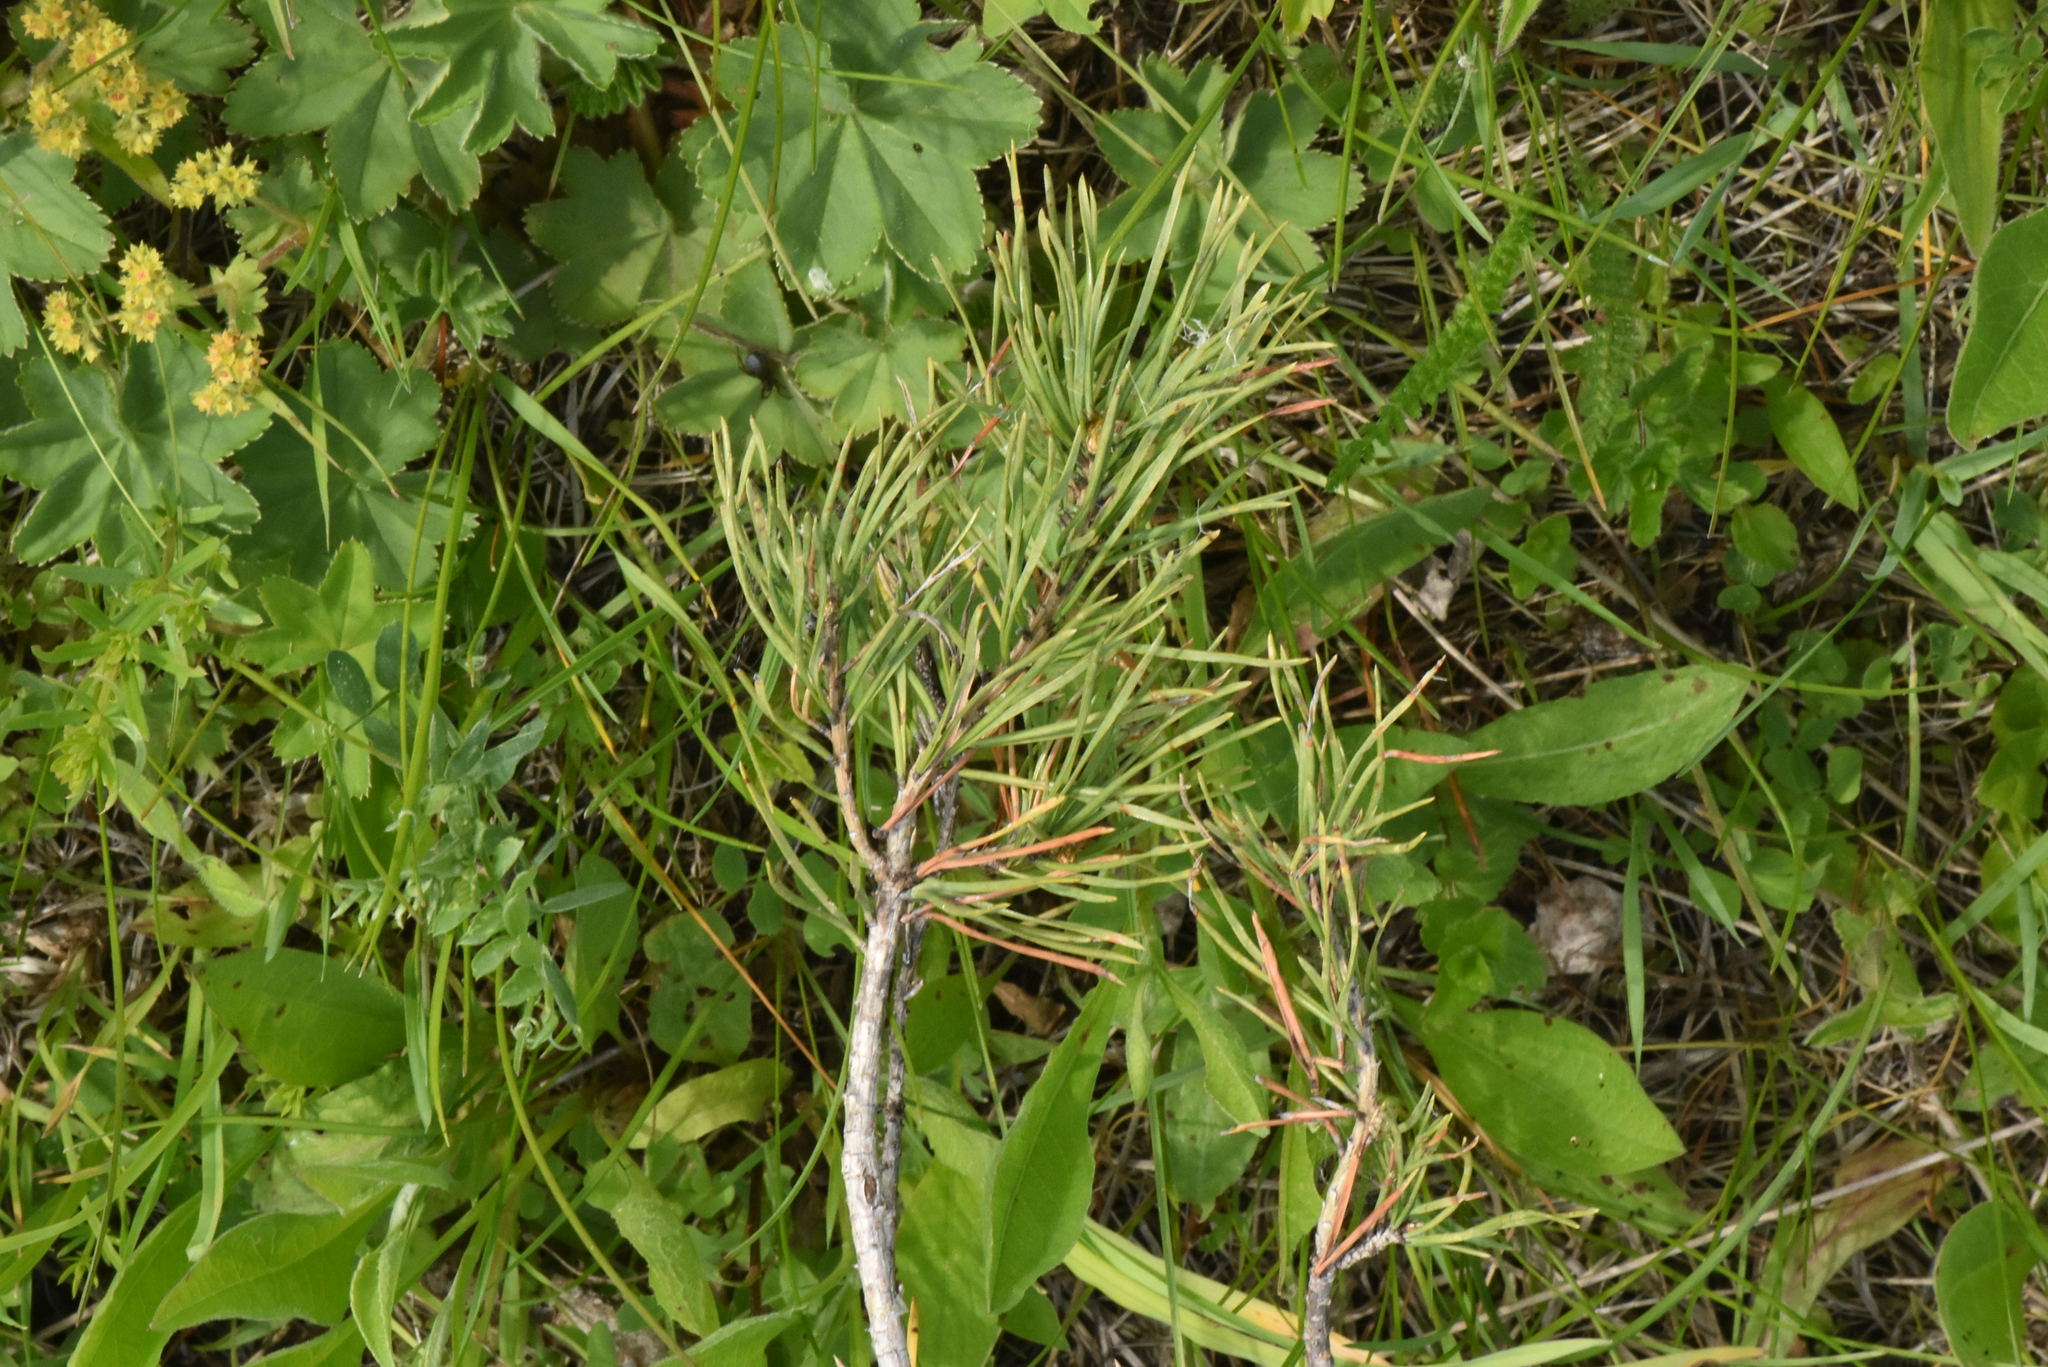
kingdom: Plantae
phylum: Tracheophyta
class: Pinopsida
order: Pinales
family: Pinaceae
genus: Pinus
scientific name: Pinus sylvestris
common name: Scots pine
